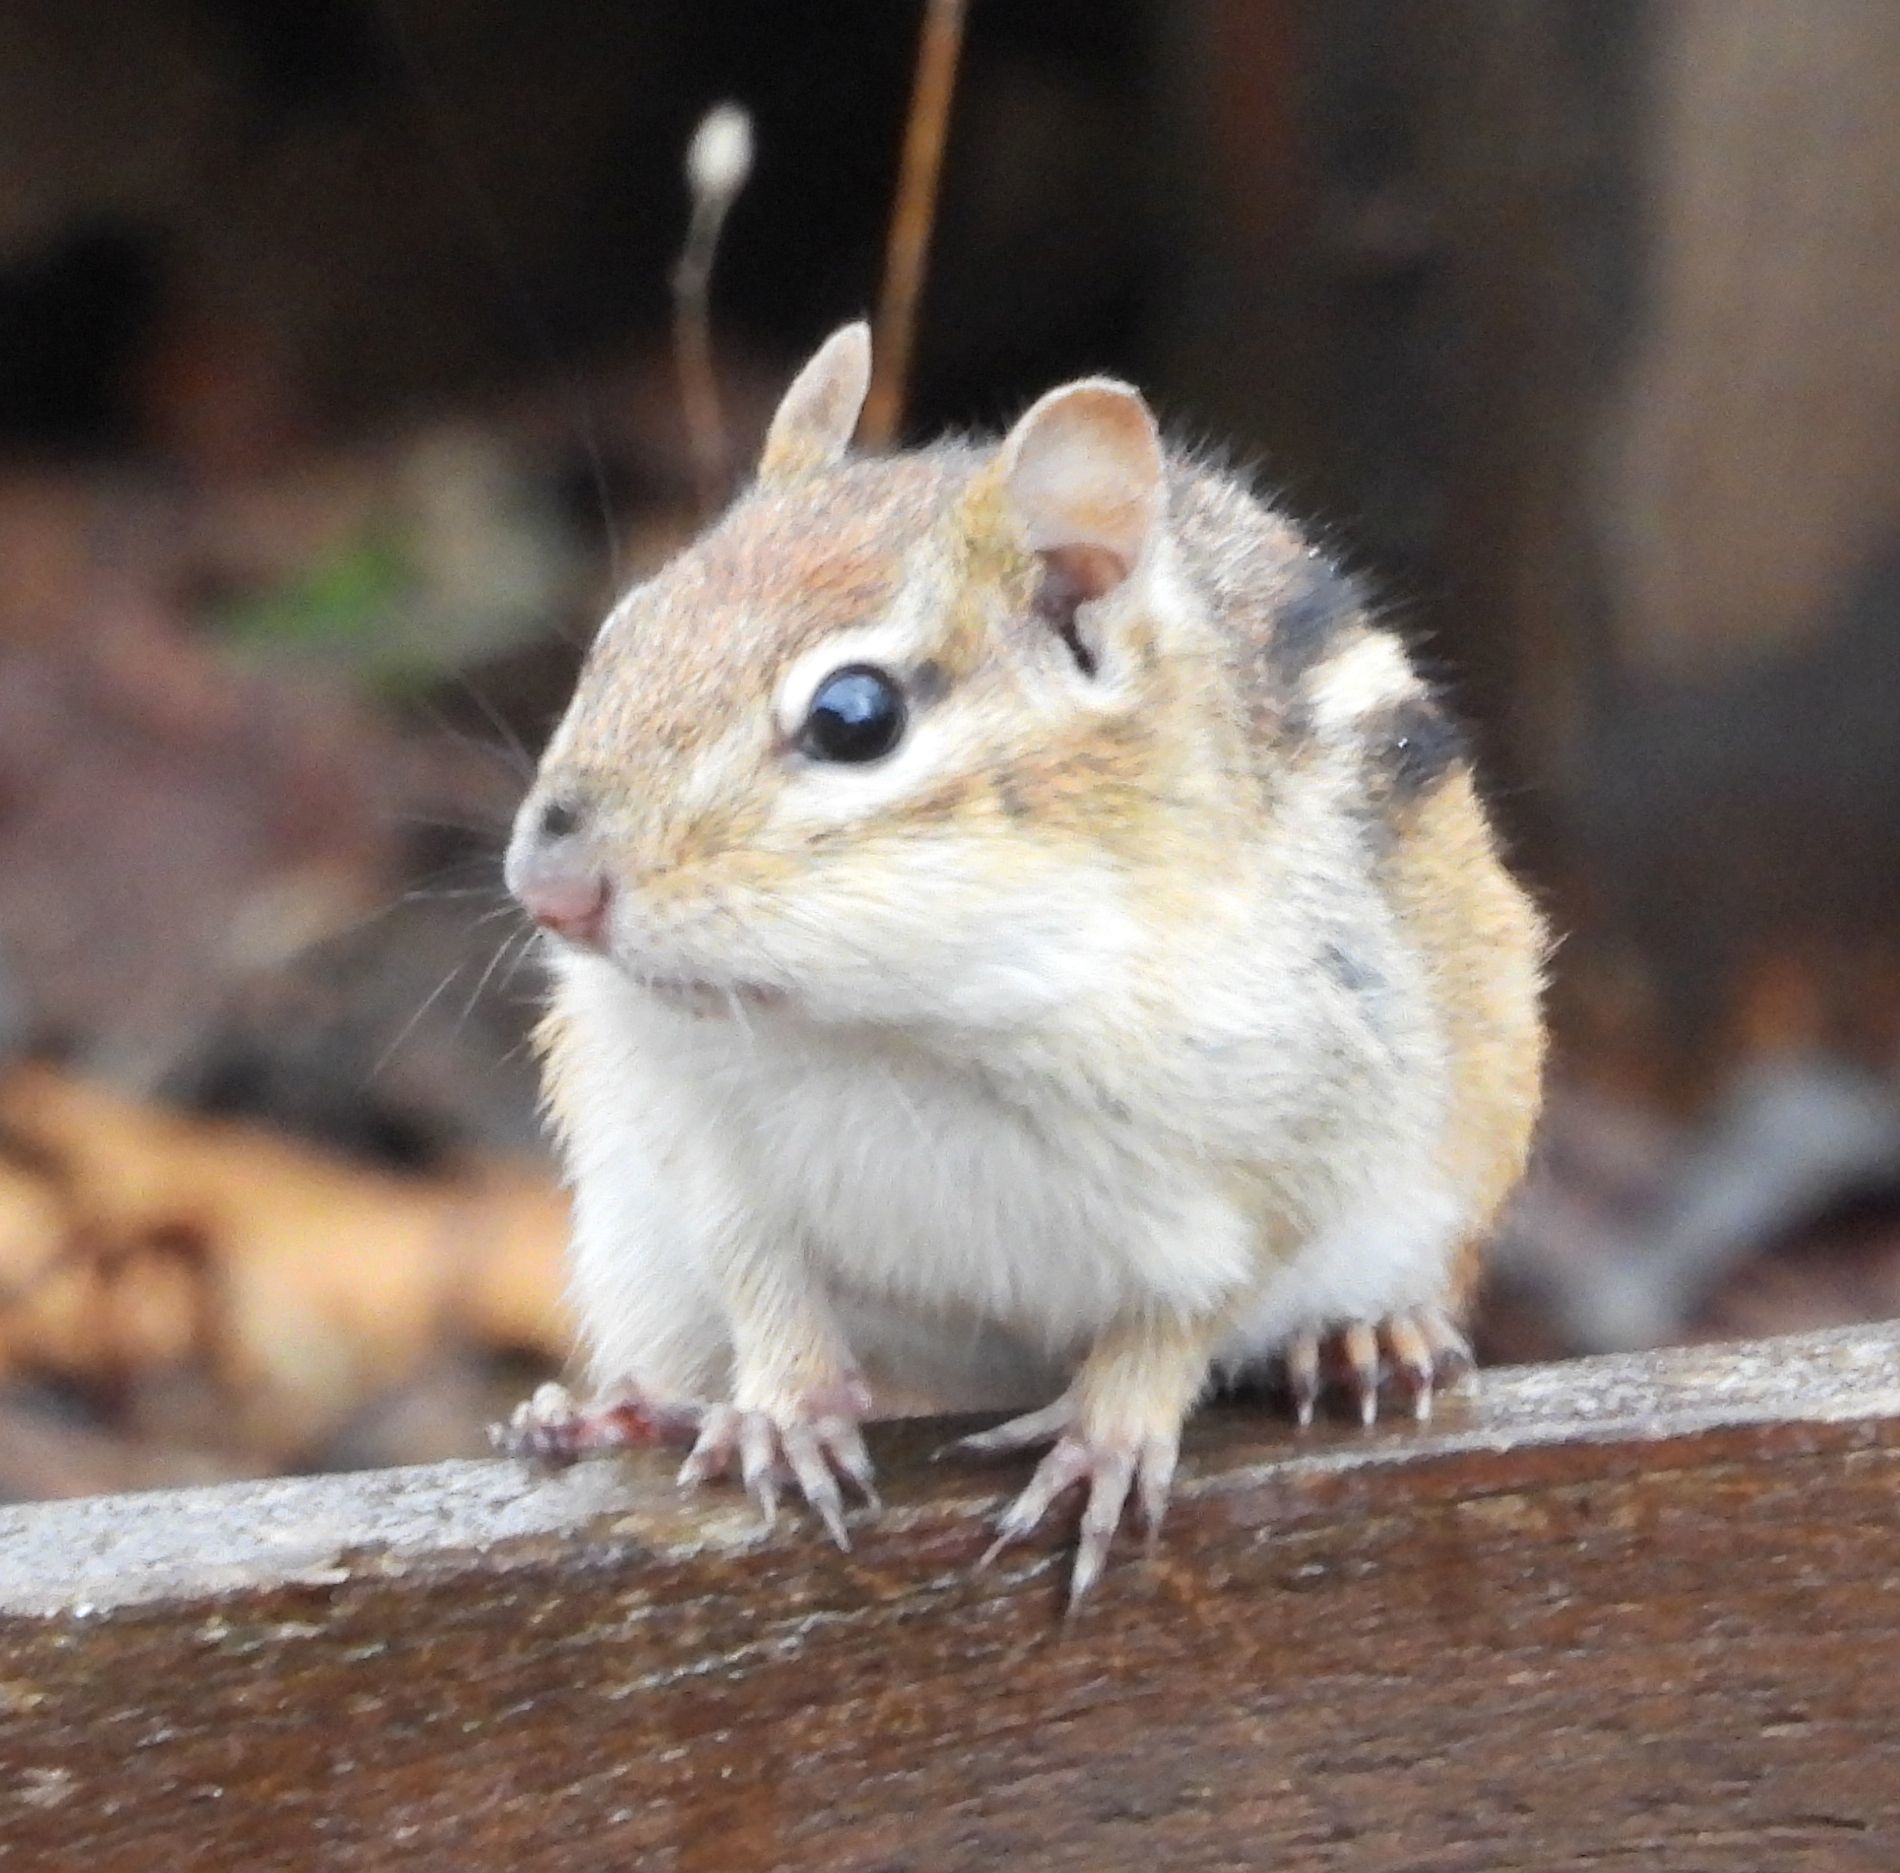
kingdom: Animalia
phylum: Chordata
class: Mammalia
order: Rodentia
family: Sciuridae
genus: Tamias
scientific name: Tamias striatus
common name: Eastern chipmunk
